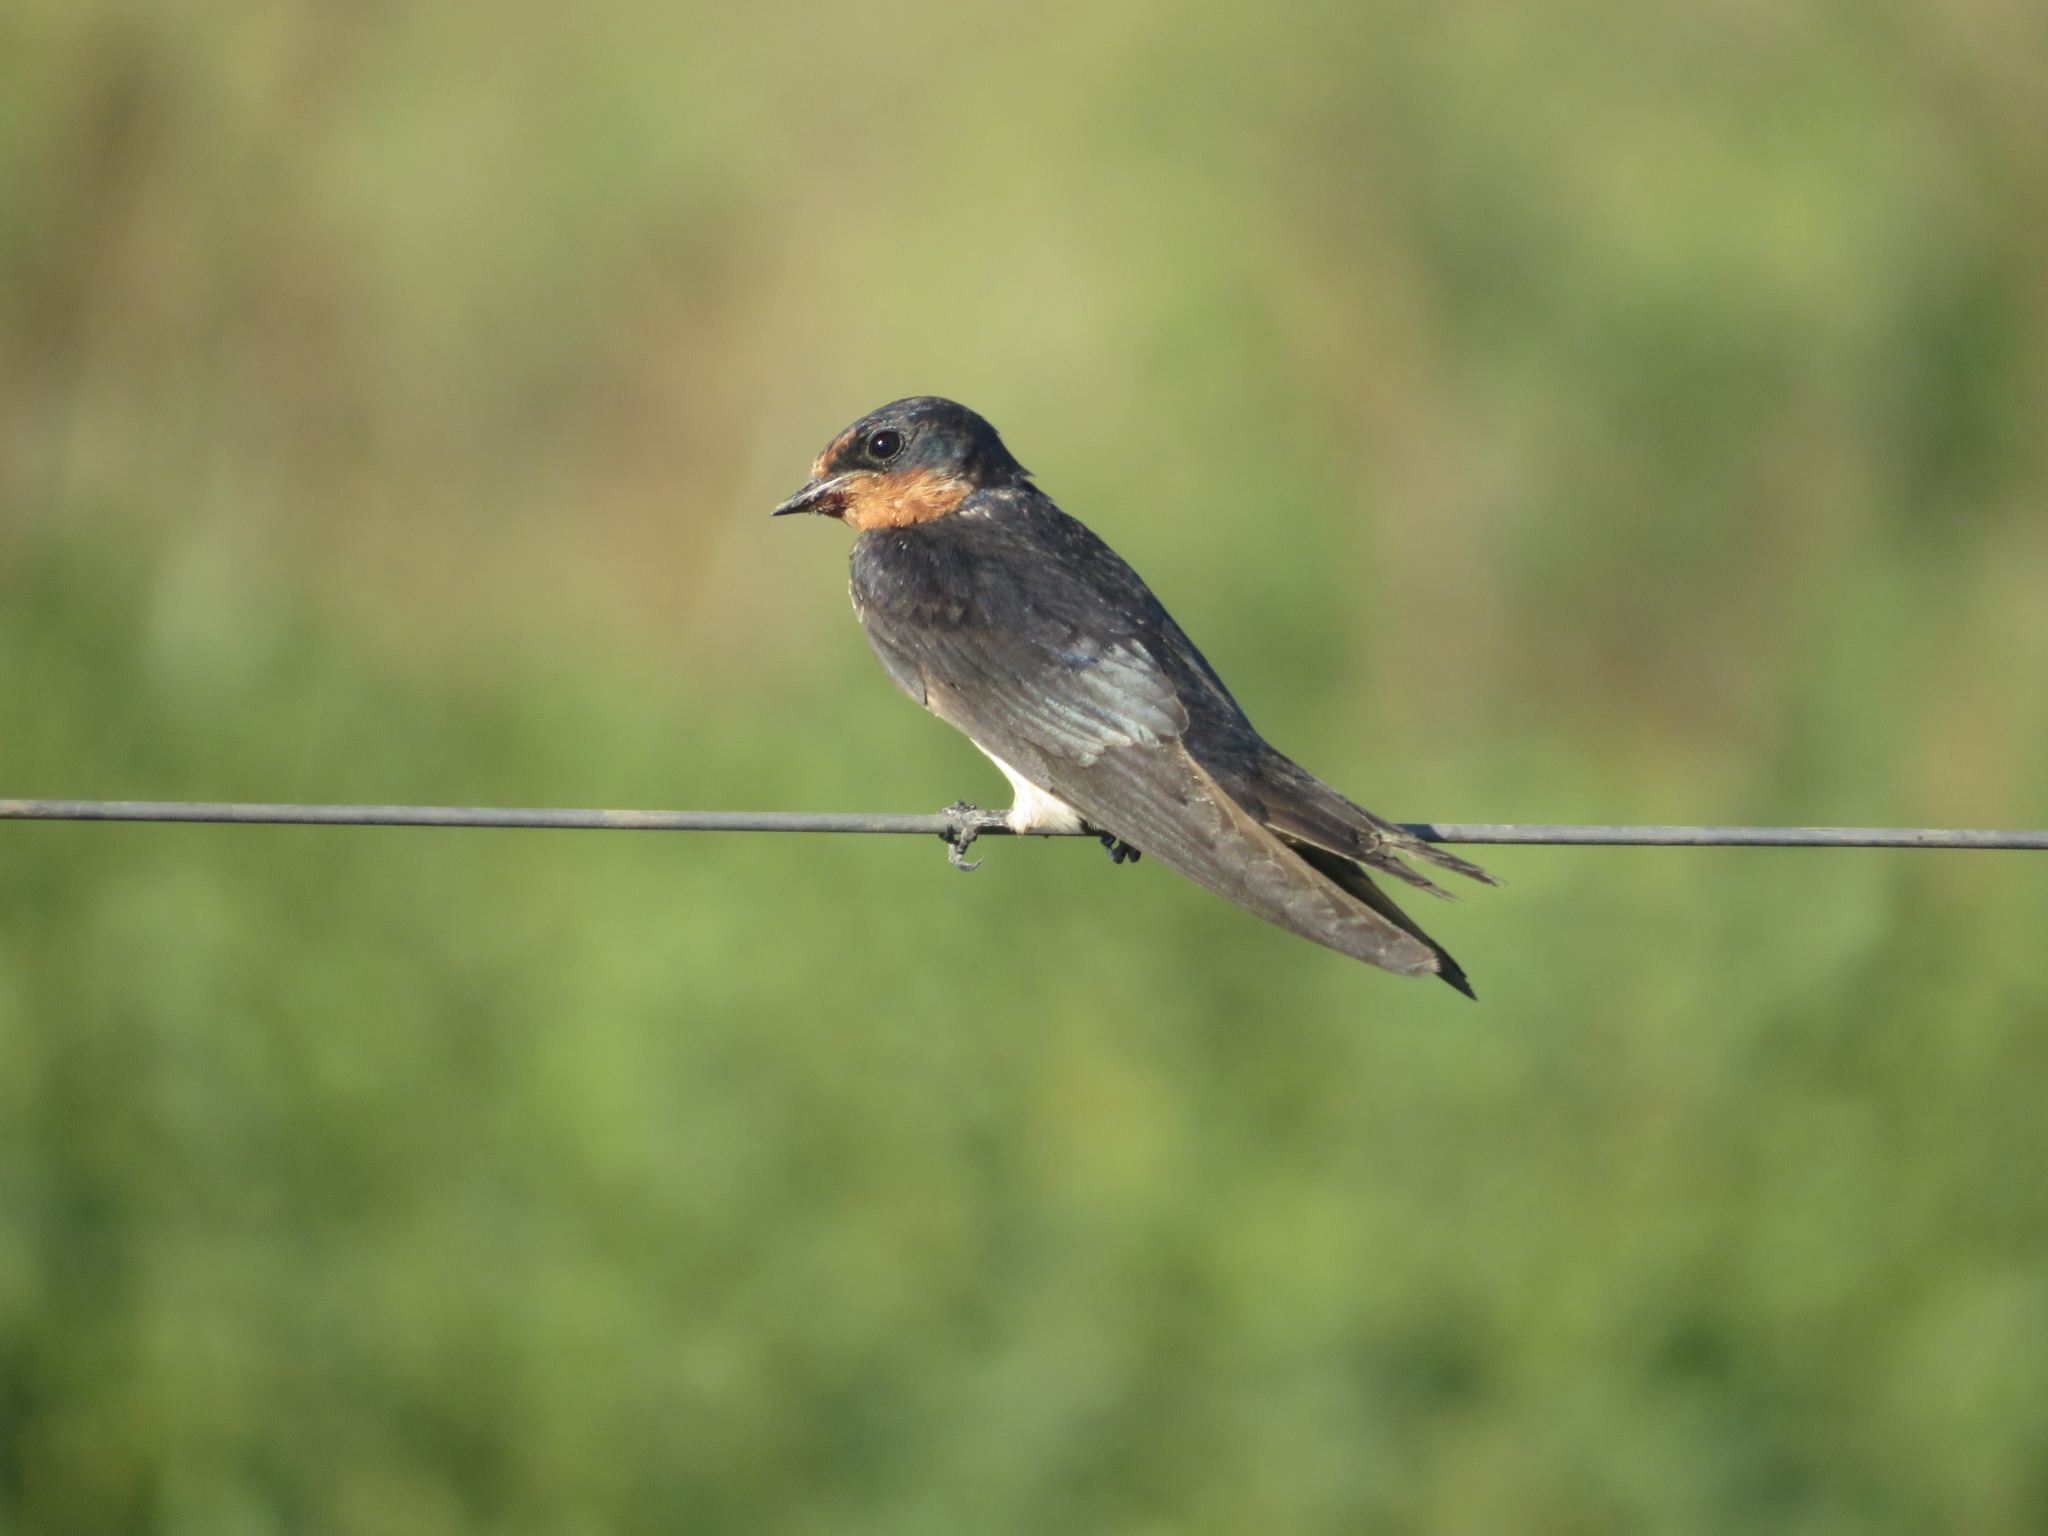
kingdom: Animalia
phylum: Chordata
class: Aves
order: Passeriformes
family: Hirundinidae
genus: Hirundo
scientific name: Hirundo rustica
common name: Barn swallow
